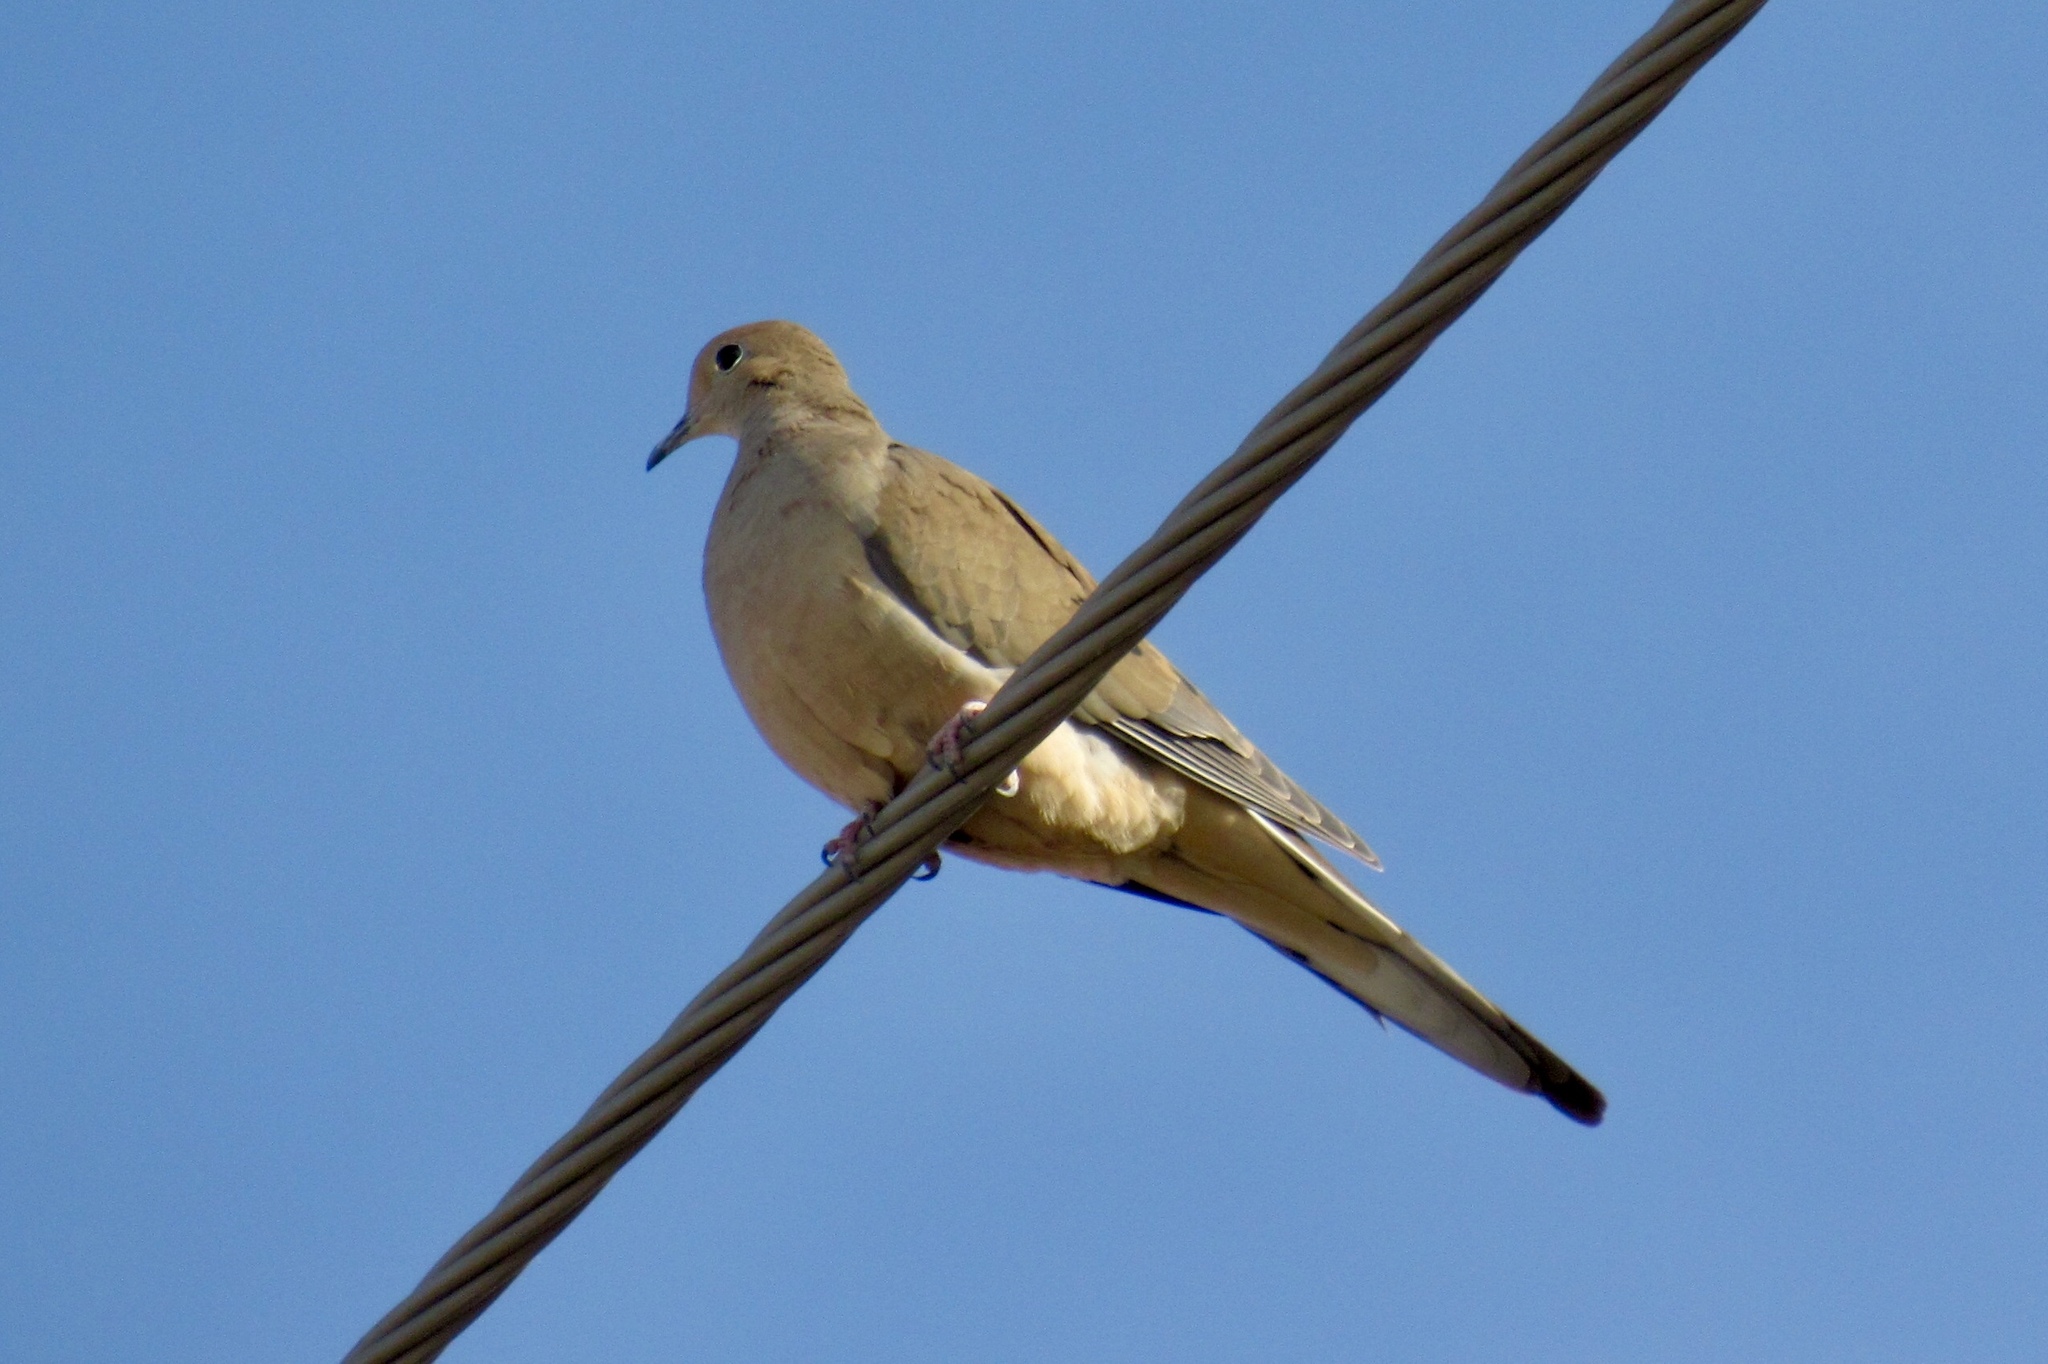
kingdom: Animalia
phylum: Chordata
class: Aves
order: Columbiformes
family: Columbidae
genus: Zenaida
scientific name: Zenaida macroura
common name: Mourning dove
